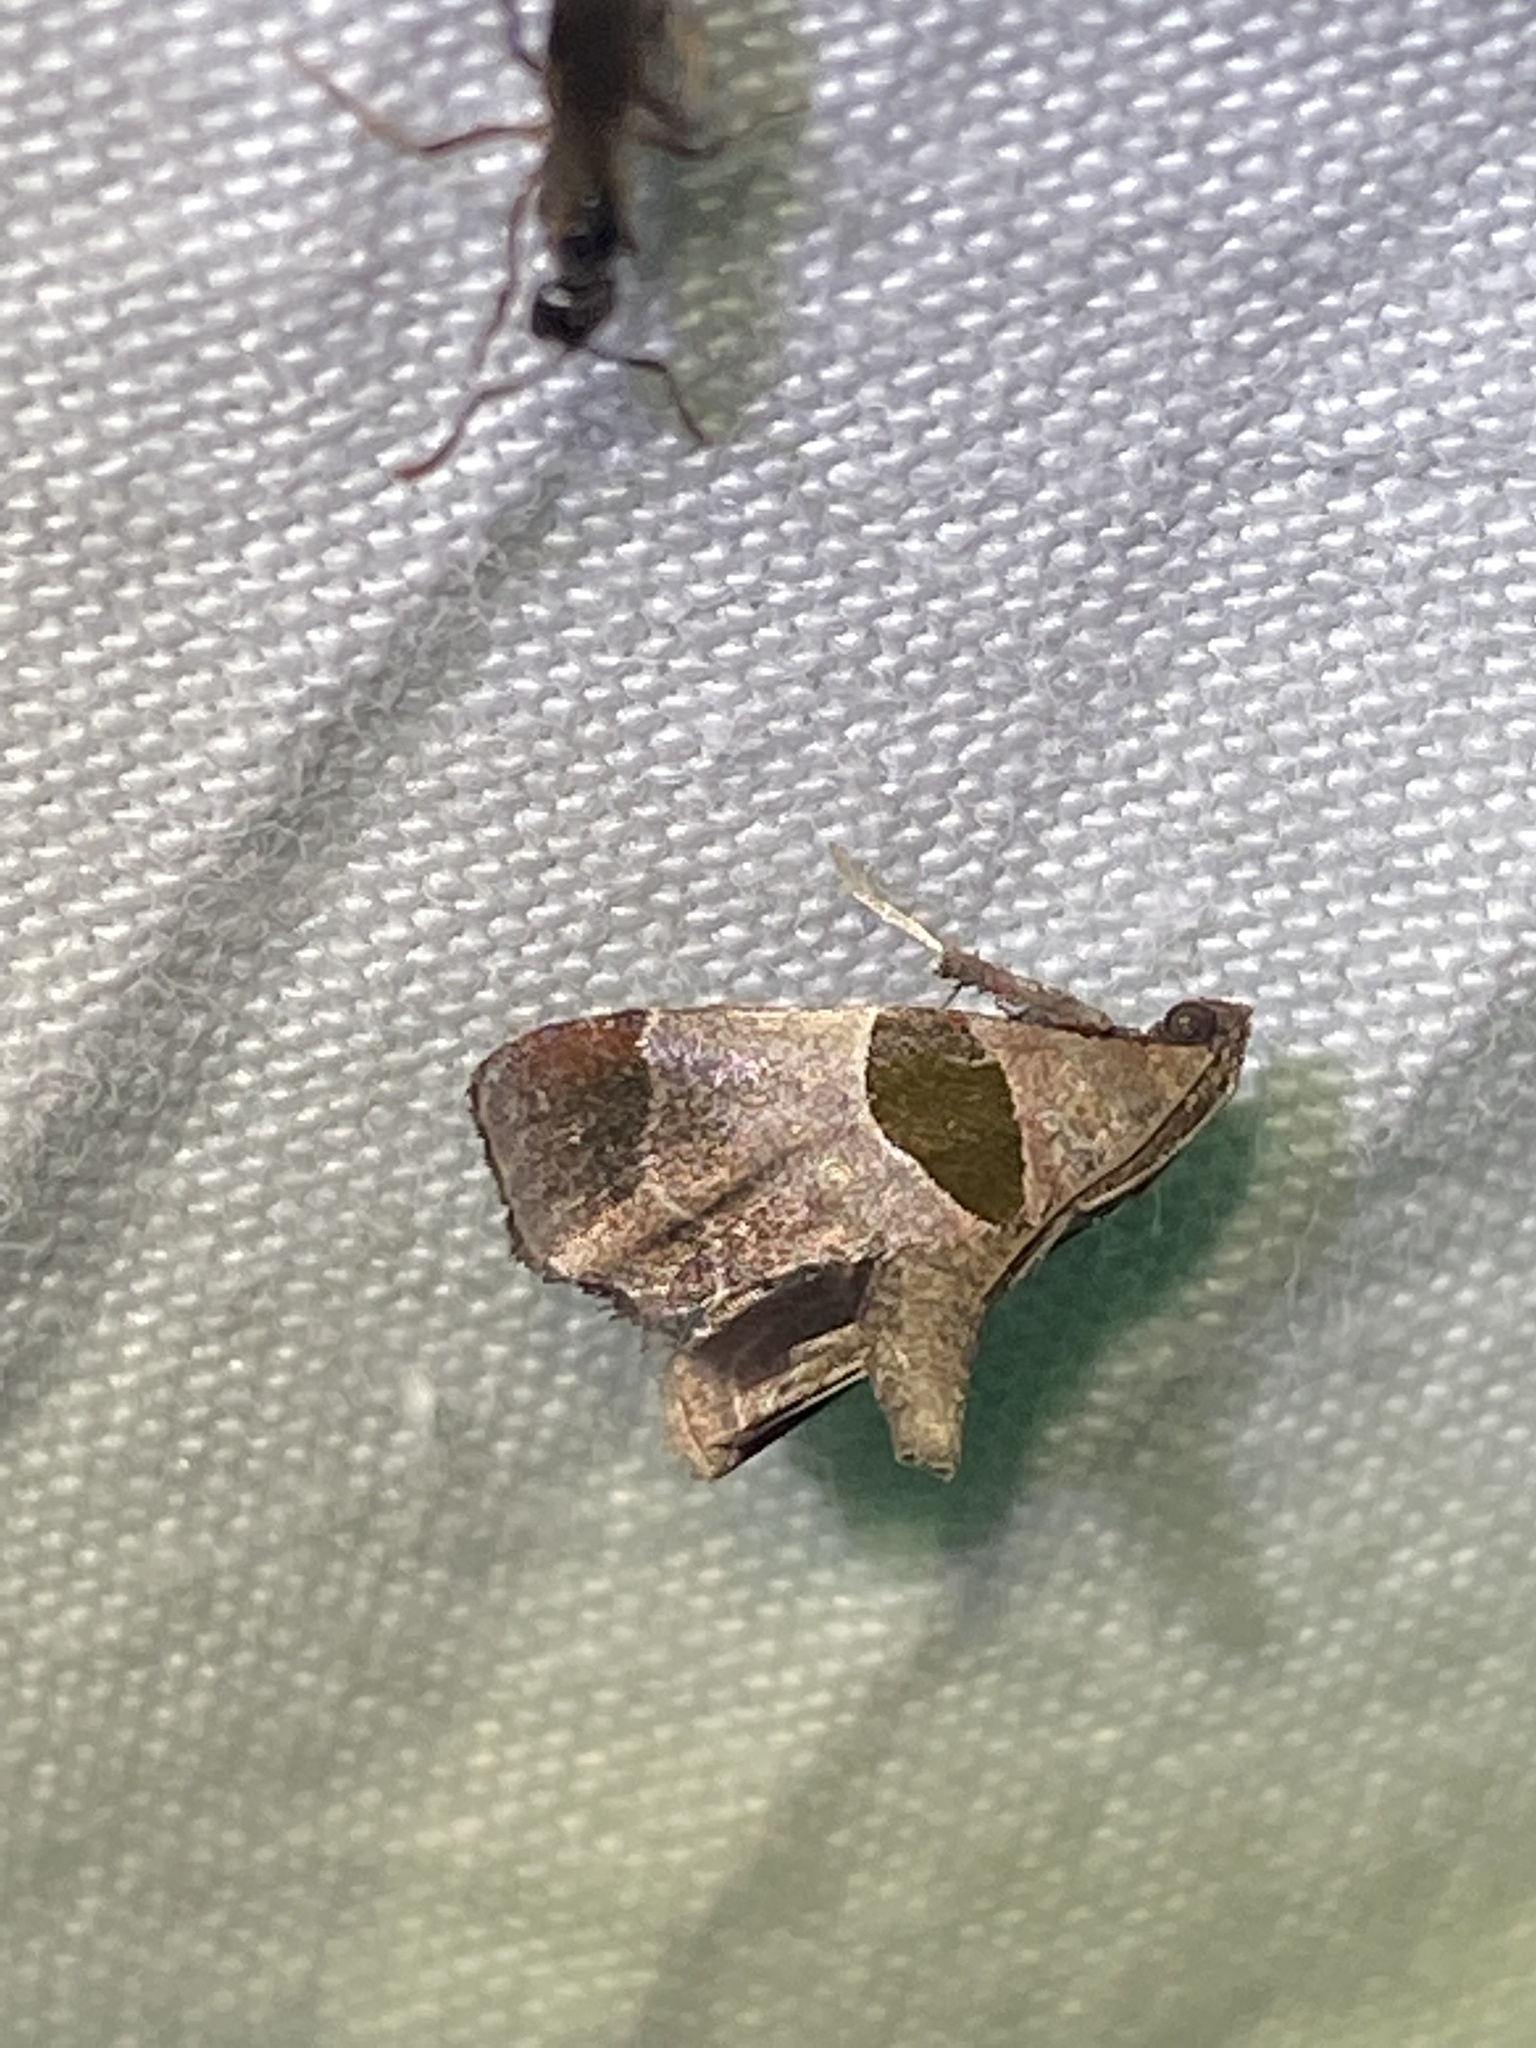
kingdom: Animalia
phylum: Arthropoda
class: Insecta
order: Lepidoptera
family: Pyralidae
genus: Tosale
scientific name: Tosale oviplagalis
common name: Dimorphic tosale moth
